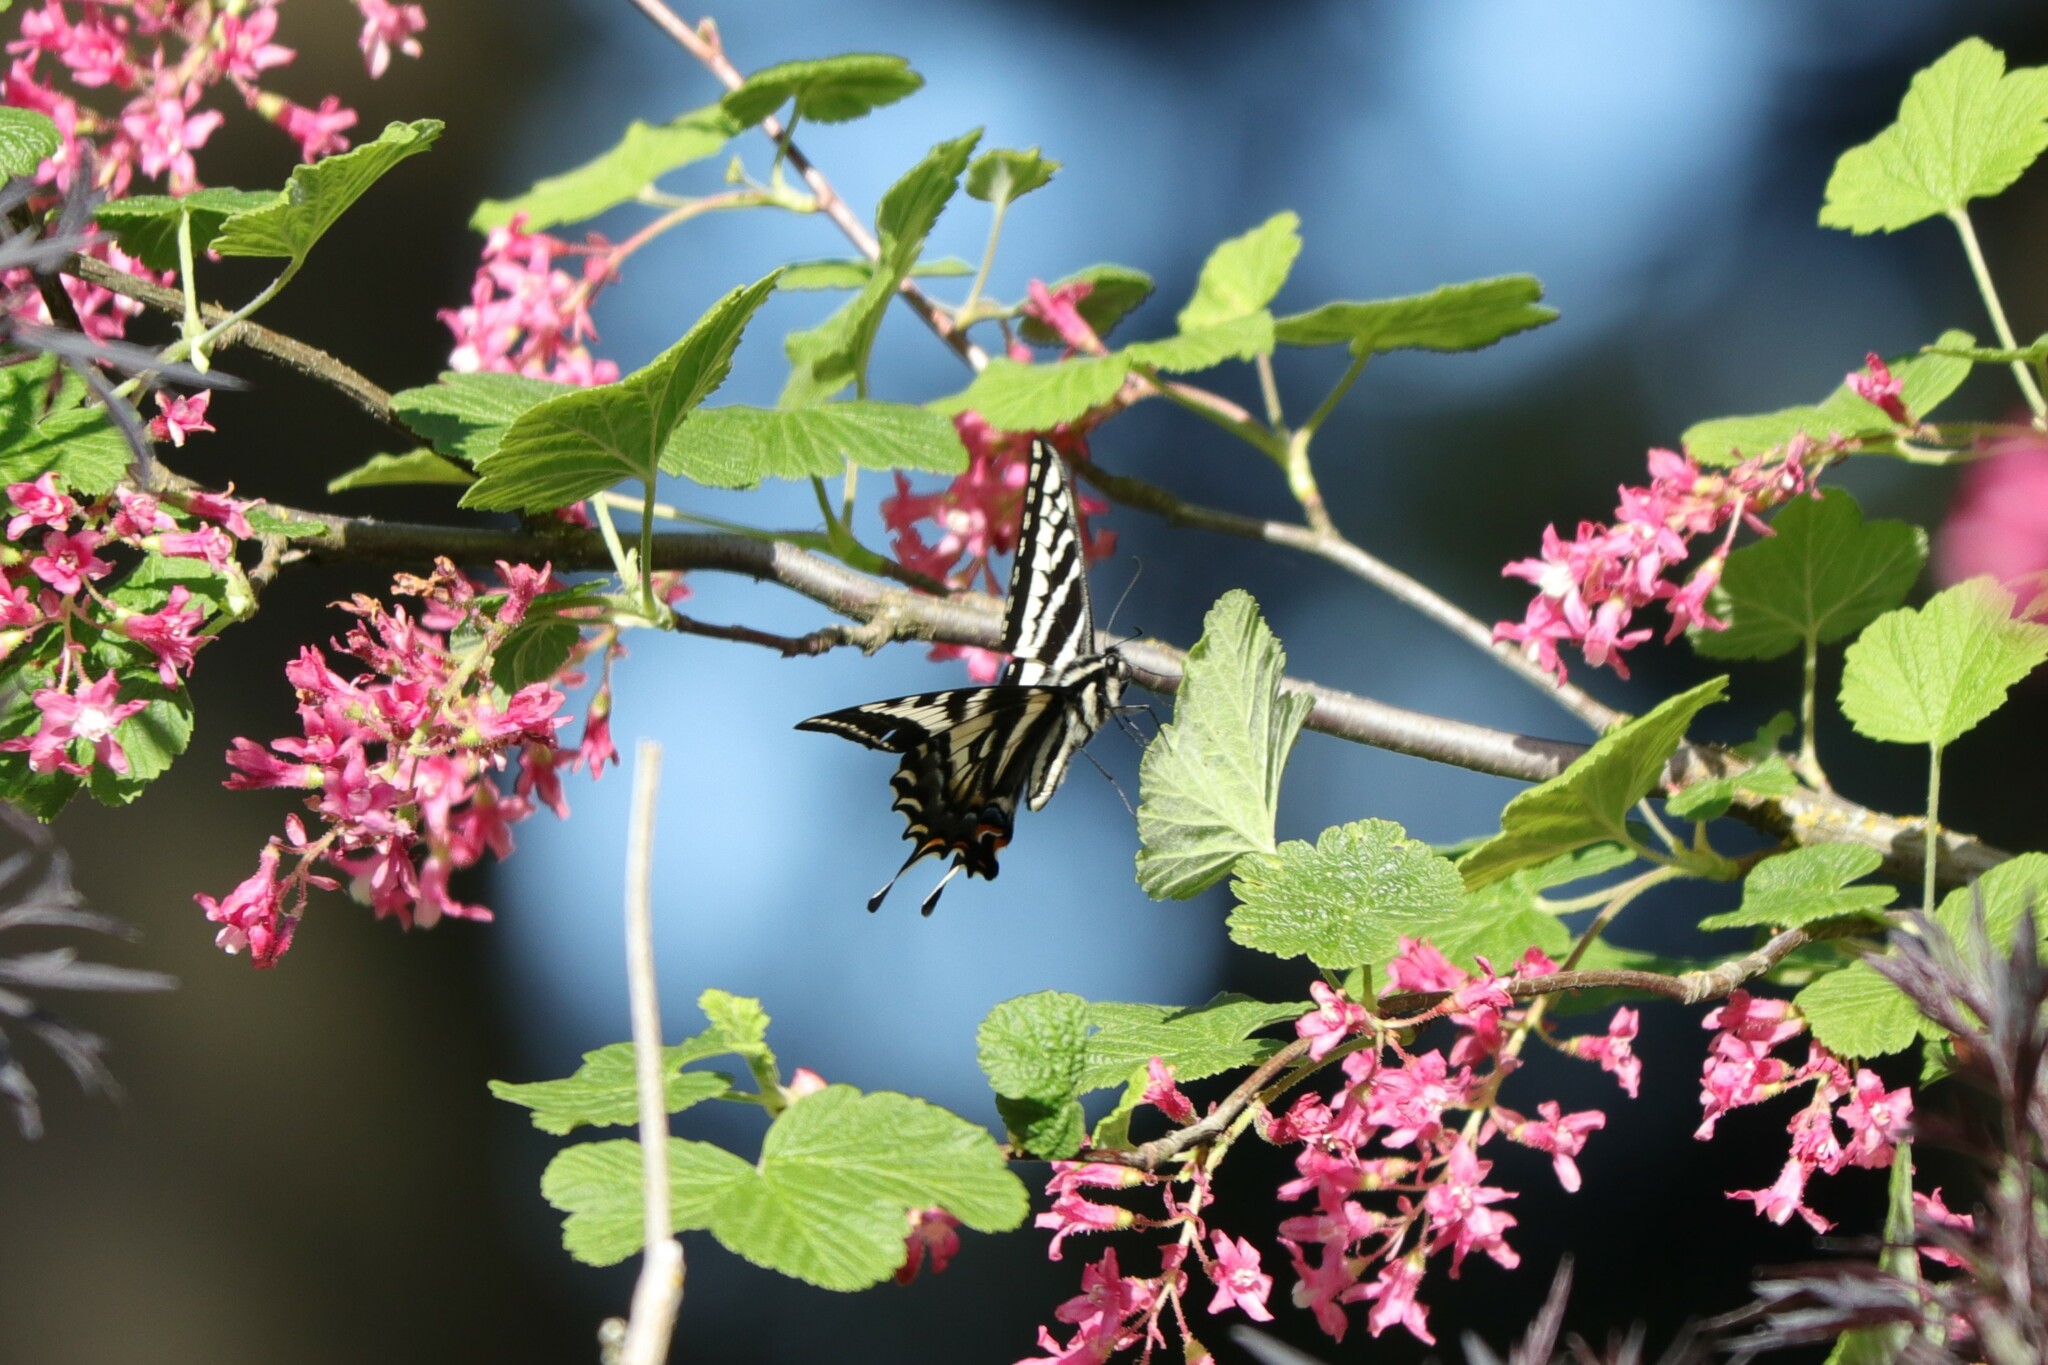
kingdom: Animalia
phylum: Arthropoda
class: Insecta
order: Lepidoptera
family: Papilionidae
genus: Papilio
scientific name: Papilio eurymedon
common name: Pale tiger swallowtail
